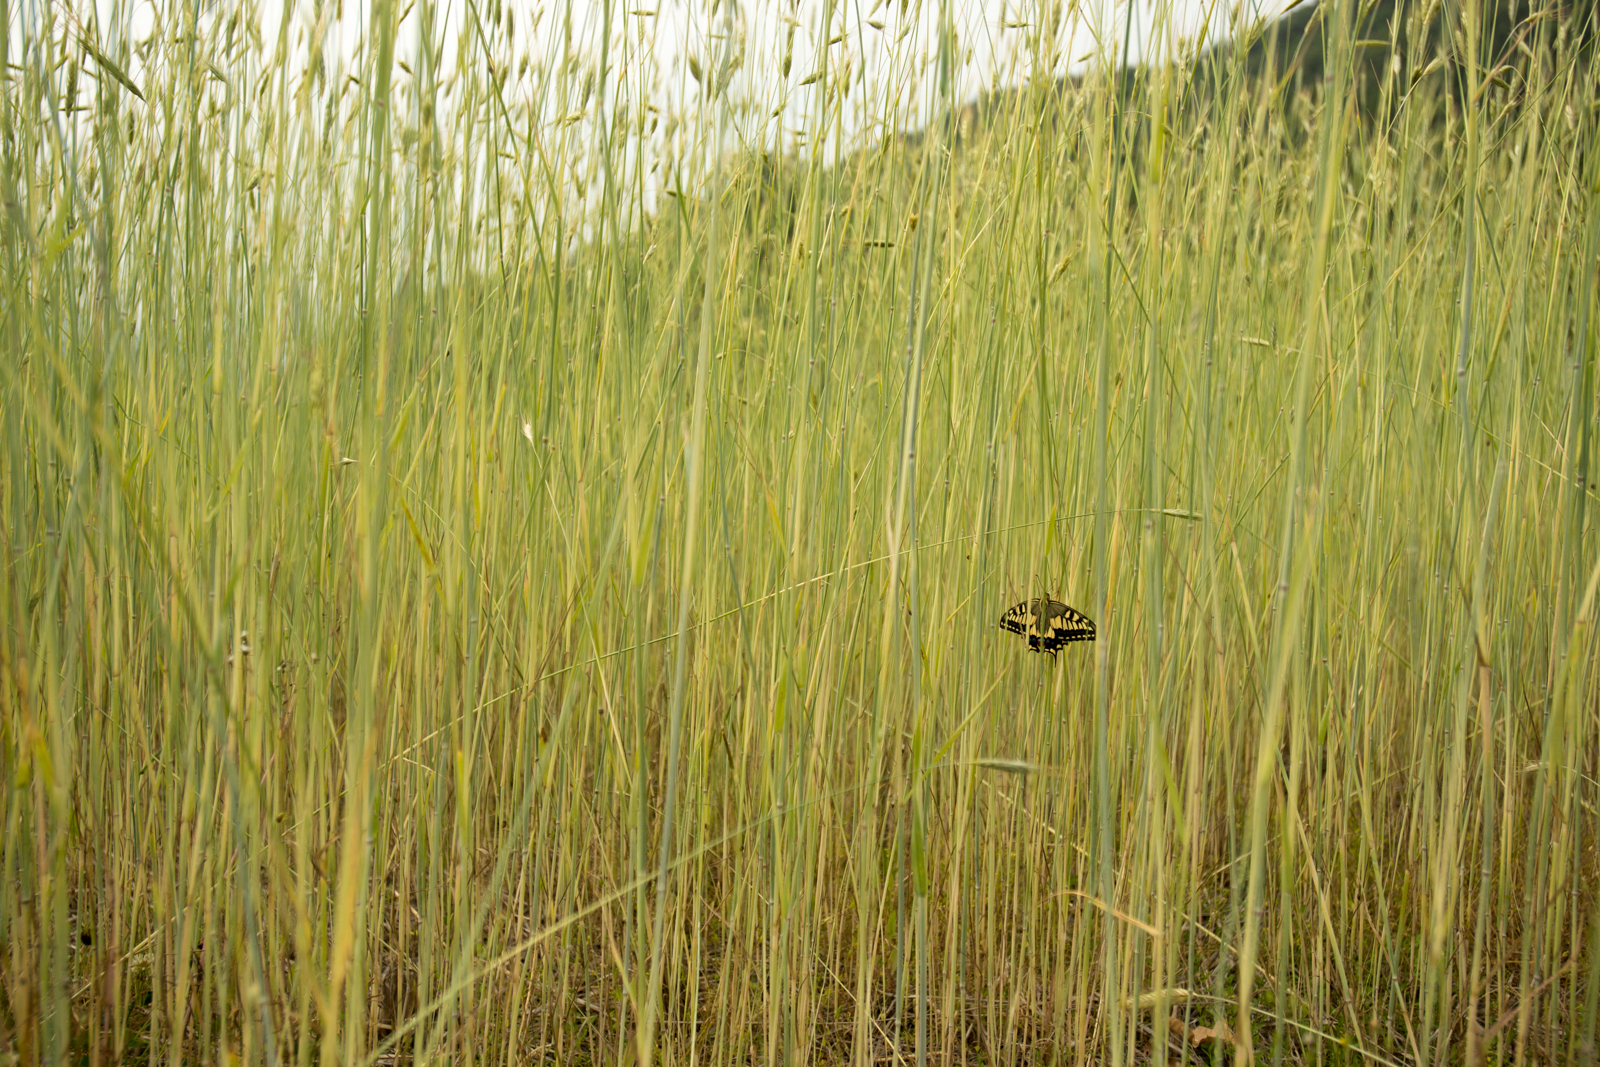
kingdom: Animalia
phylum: Arthropoda
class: Insecta
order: Lepidoptera
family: Papilionidae
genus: Papilio
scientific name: Papilio machaon
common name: Swallowtail
